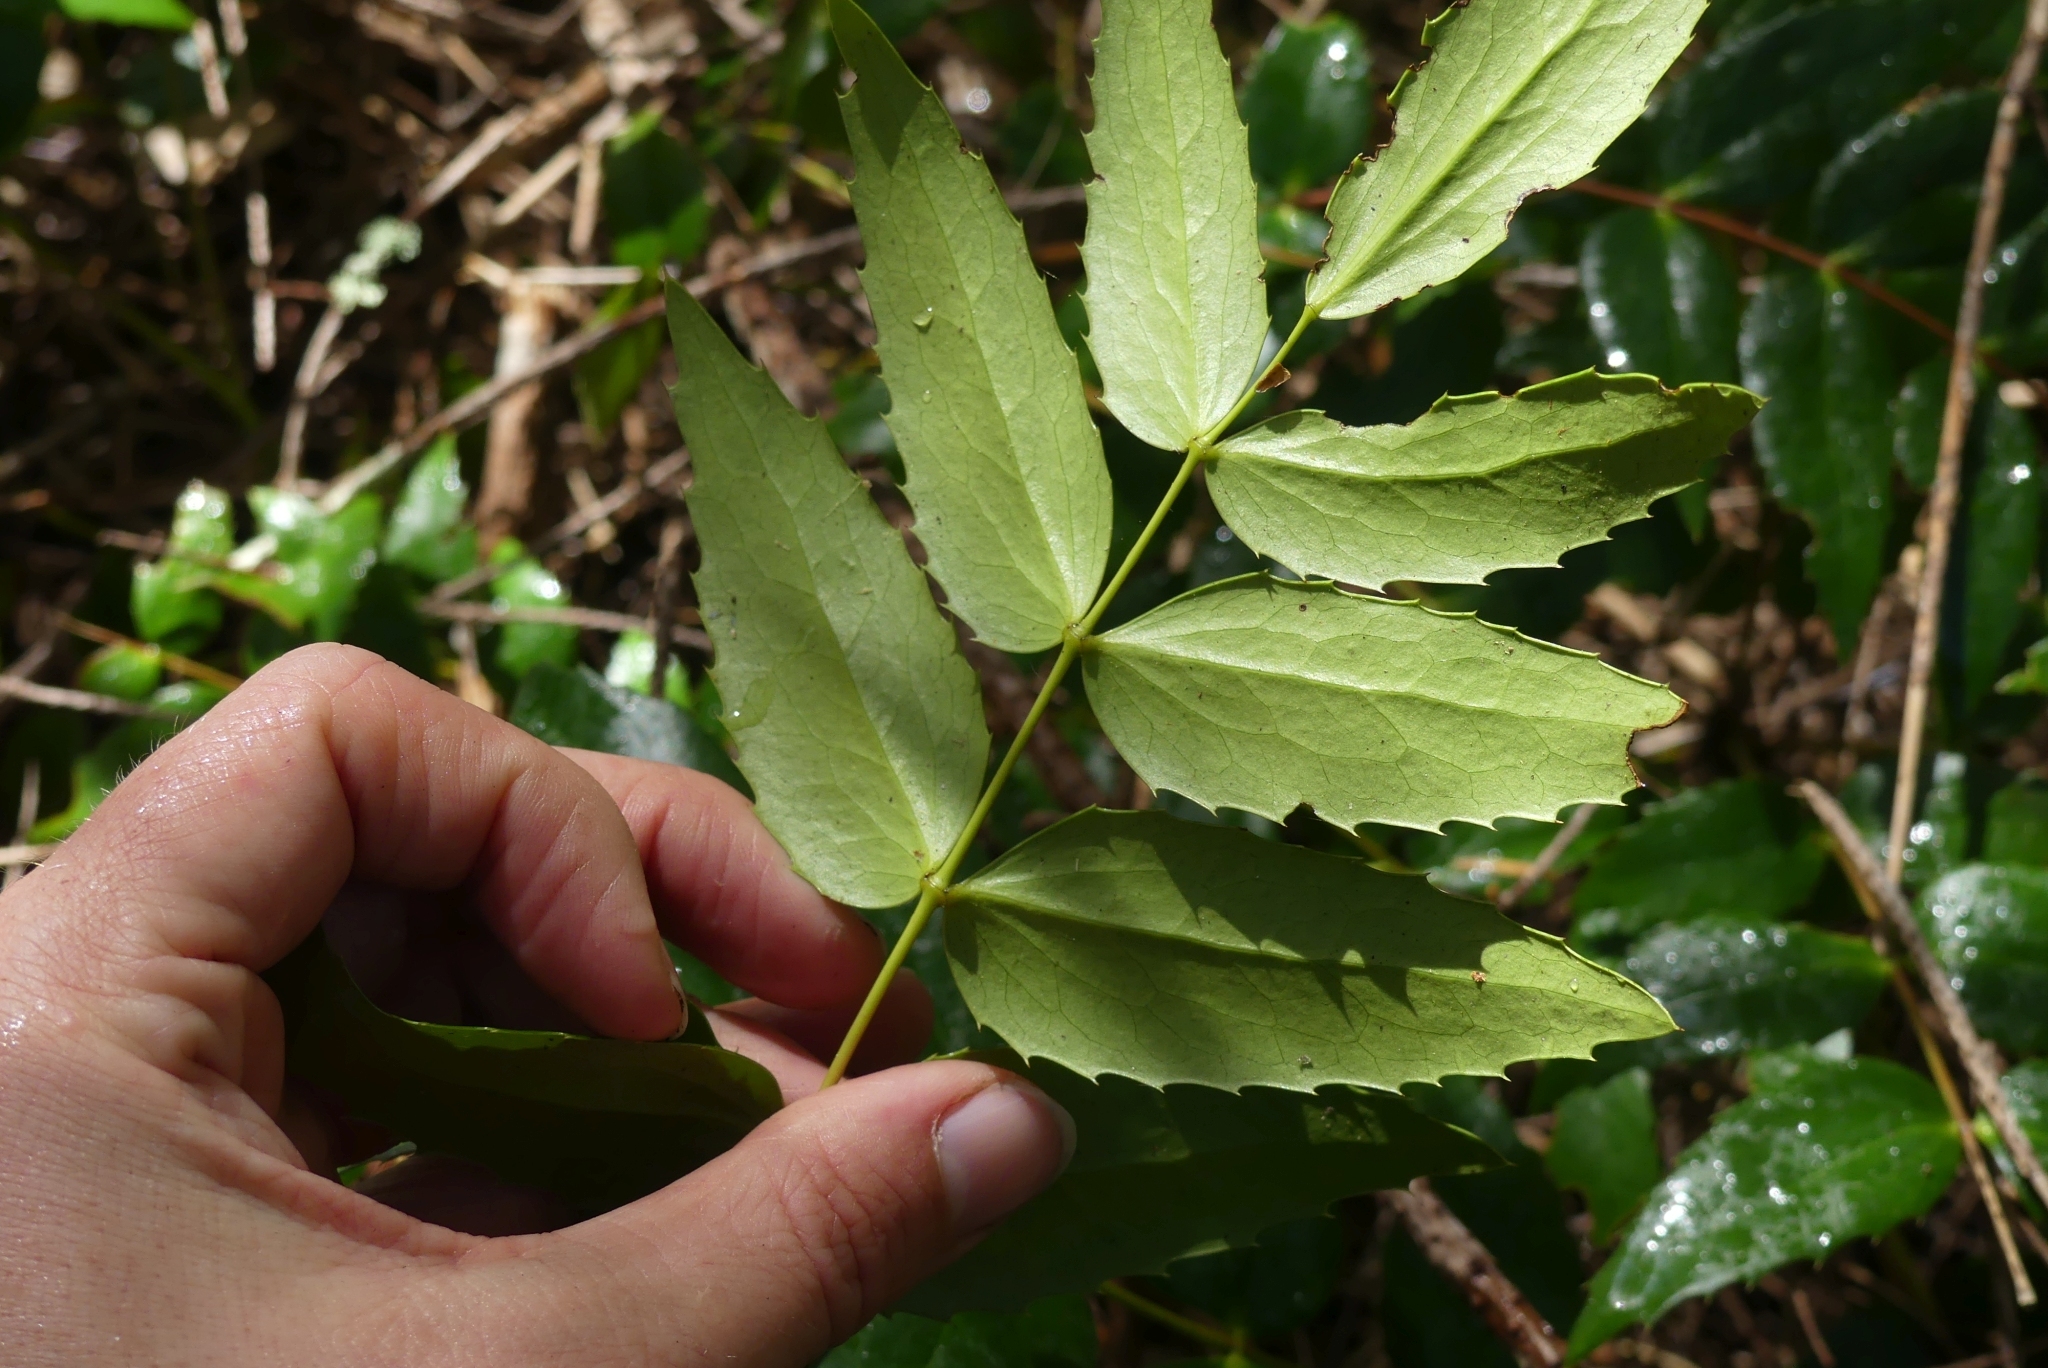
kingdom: Plantae
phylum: Tracheophyta
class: Magnoliopsida
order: Ranunculales
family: Berberidaceae
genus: Mahonia
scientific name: Mahonia nervosa
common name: Cascade oregon-grape
